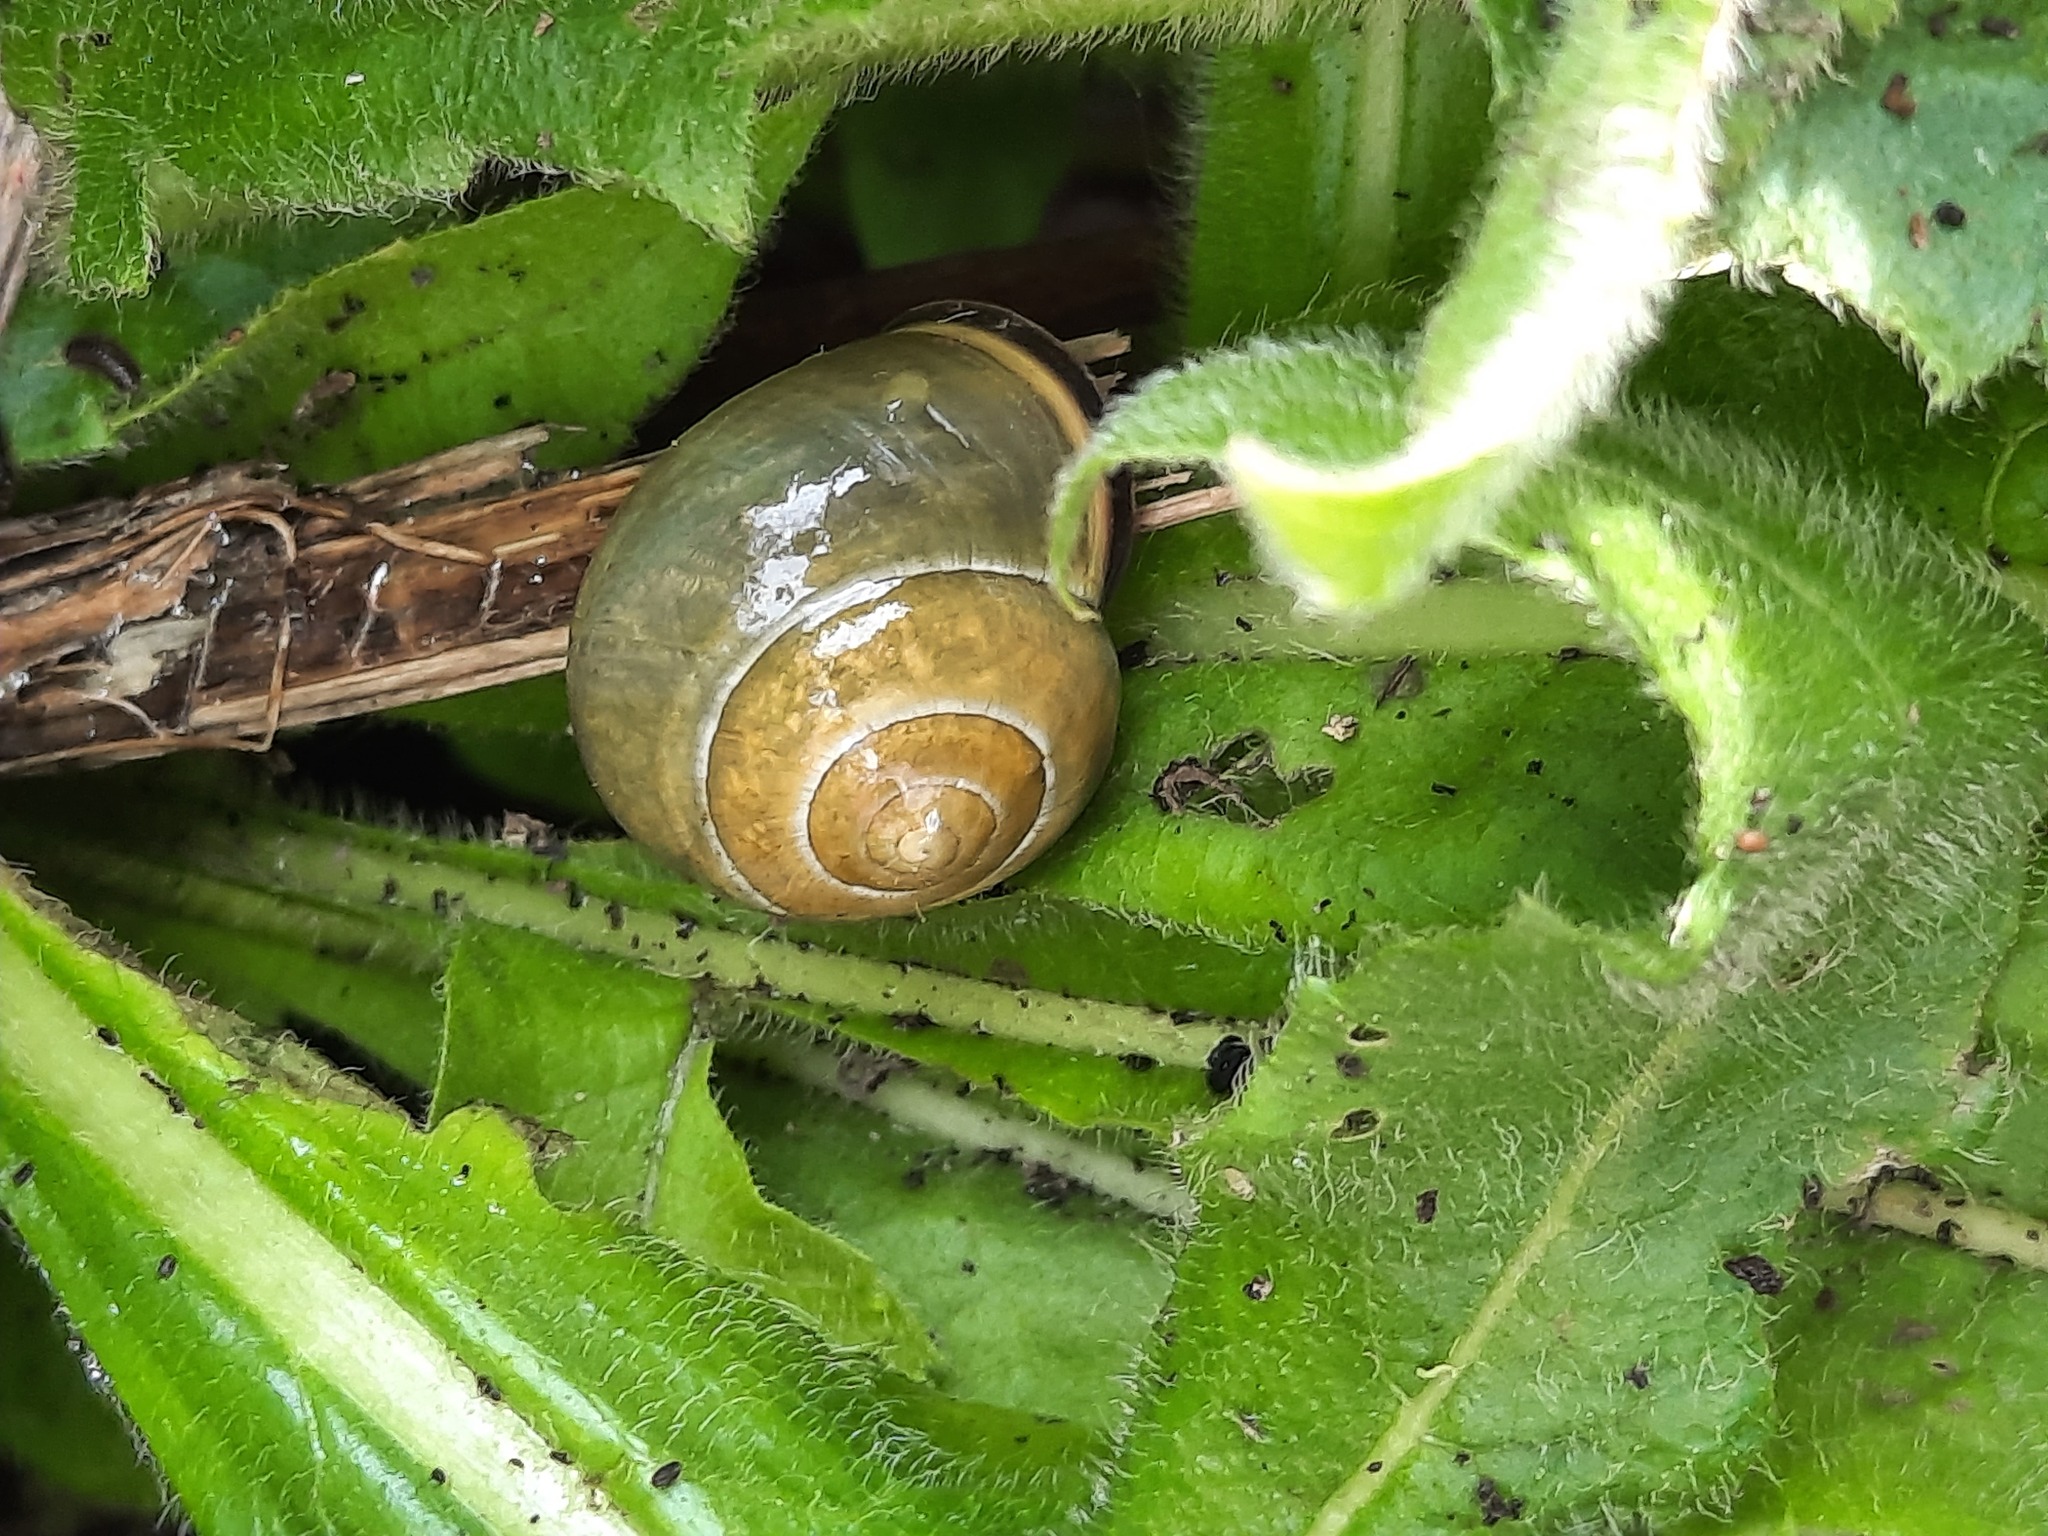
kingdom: Animalia
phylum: Mollusca
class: Gastropoda
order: Stylommatophora
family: Helicidae
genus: Cepaea
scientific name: Cepaea nemoralis
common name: Grovesnail
